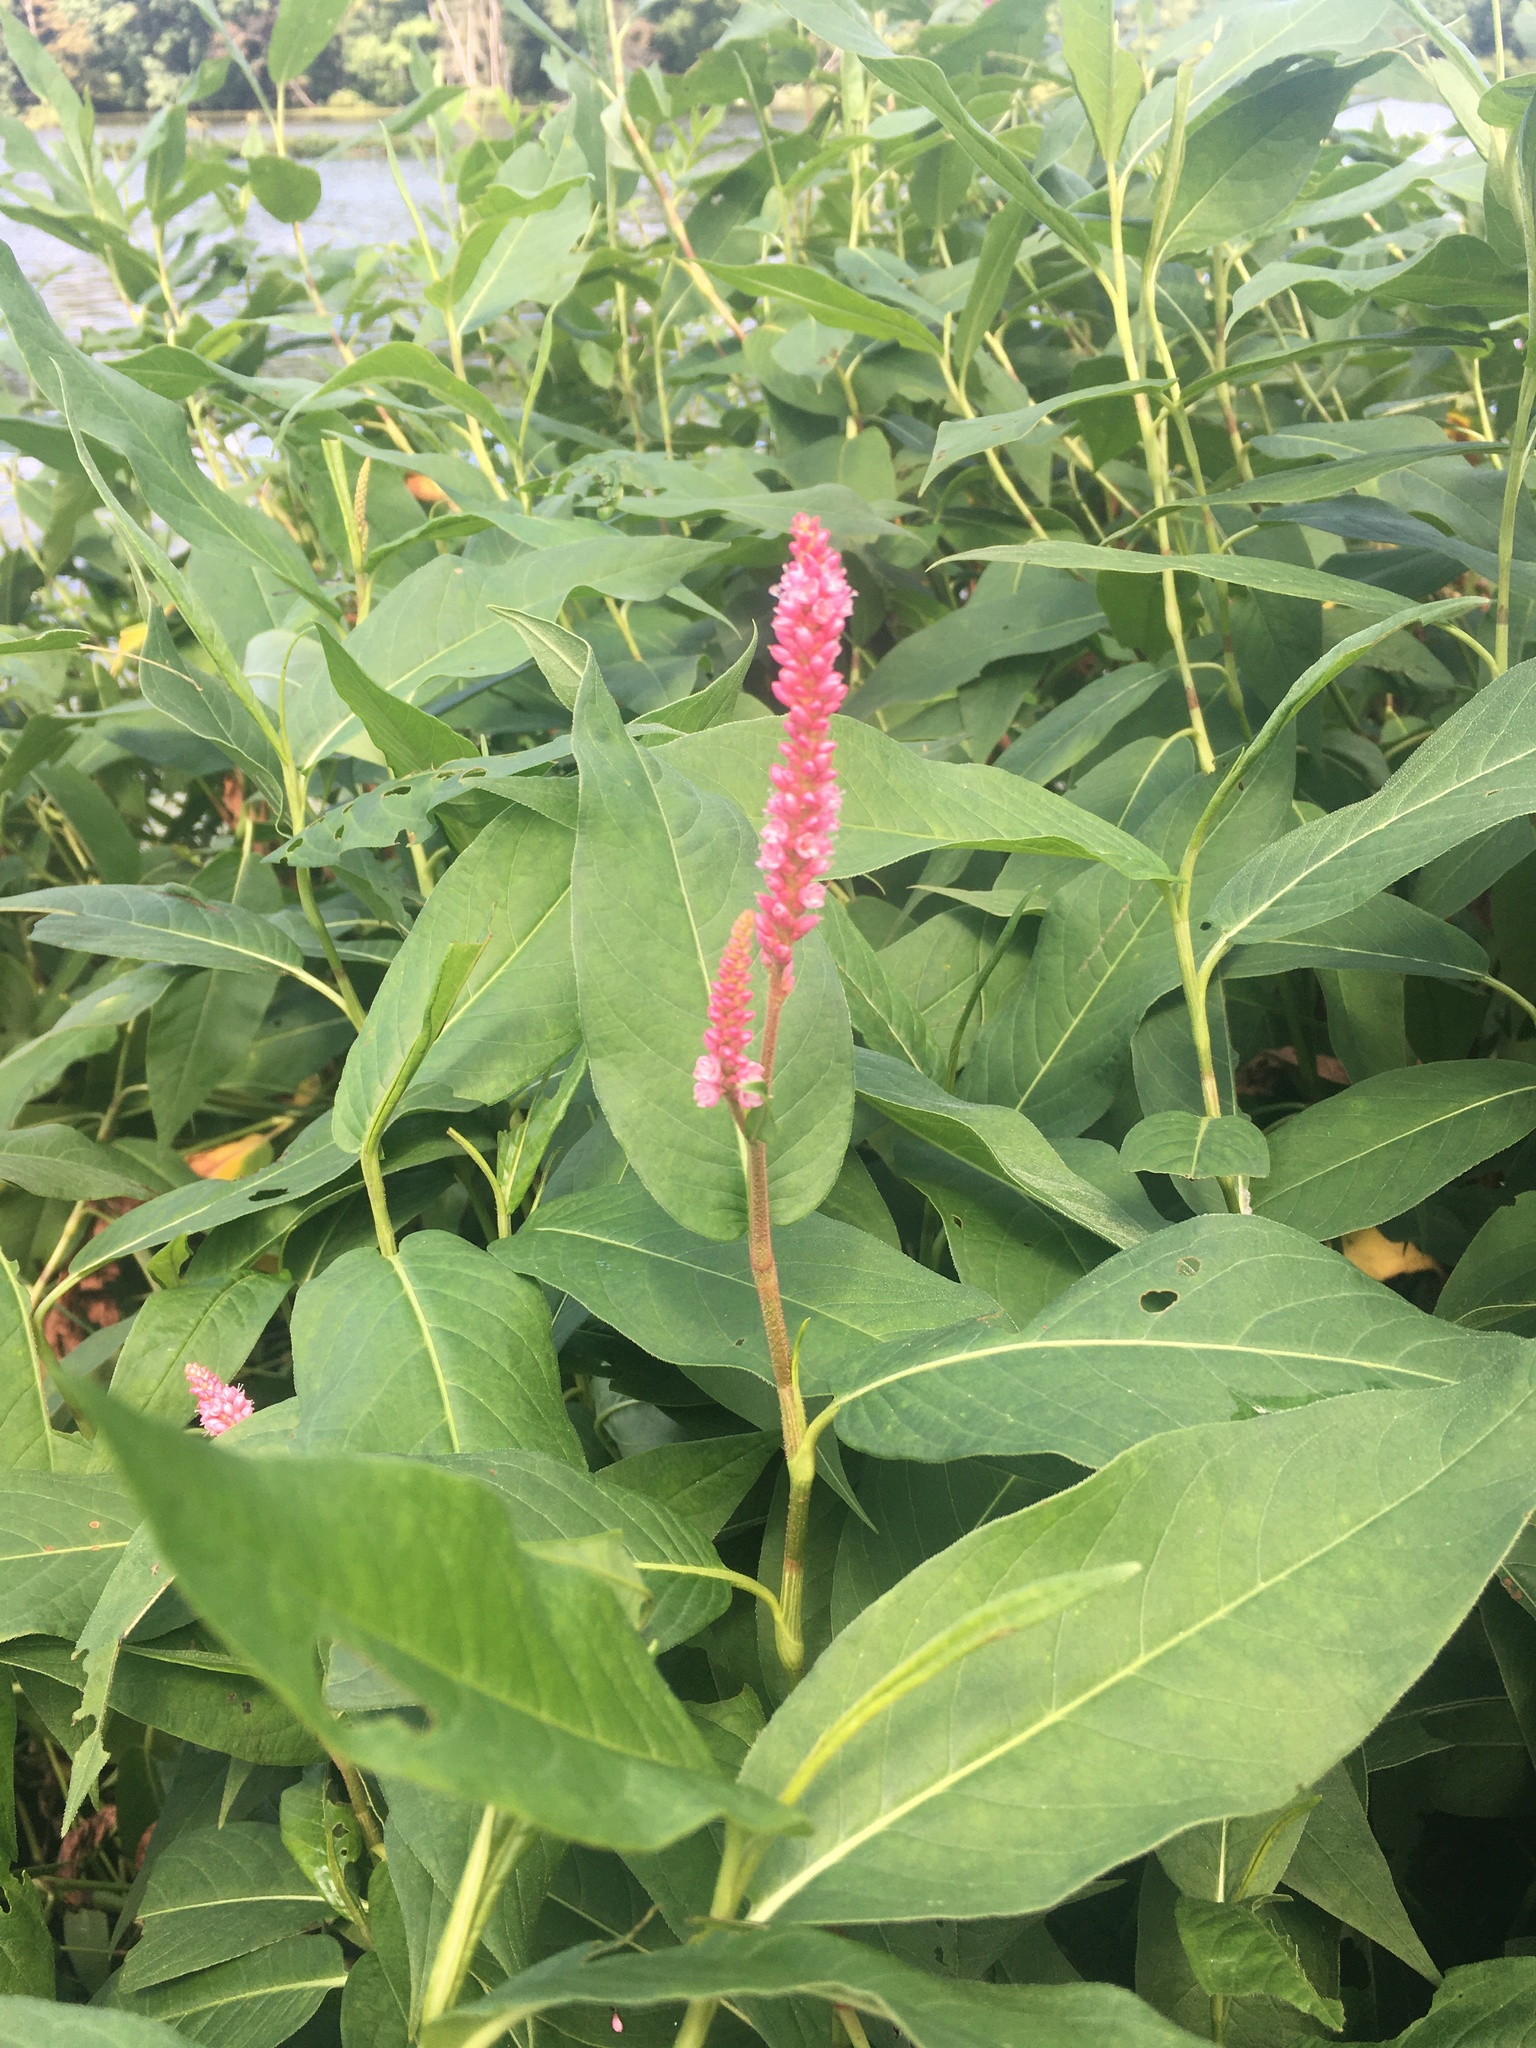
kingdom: Plantae
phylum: Tracheophyta
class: Magnoliopsida
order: Caryophyllales
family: Polygonaceae
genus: Persicaria
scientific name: Persicaria amphibia
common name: Amphibious bistort
